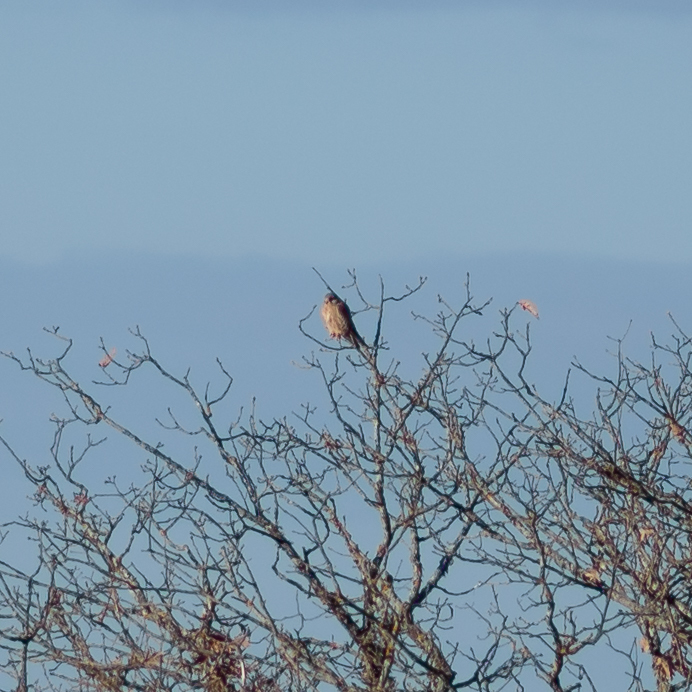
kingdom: Animalia
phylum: Chordata
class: Aves
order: Falconiformes
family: Falconidae
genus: Falco
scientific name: Falco tinnunculus
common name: Common kestrel
